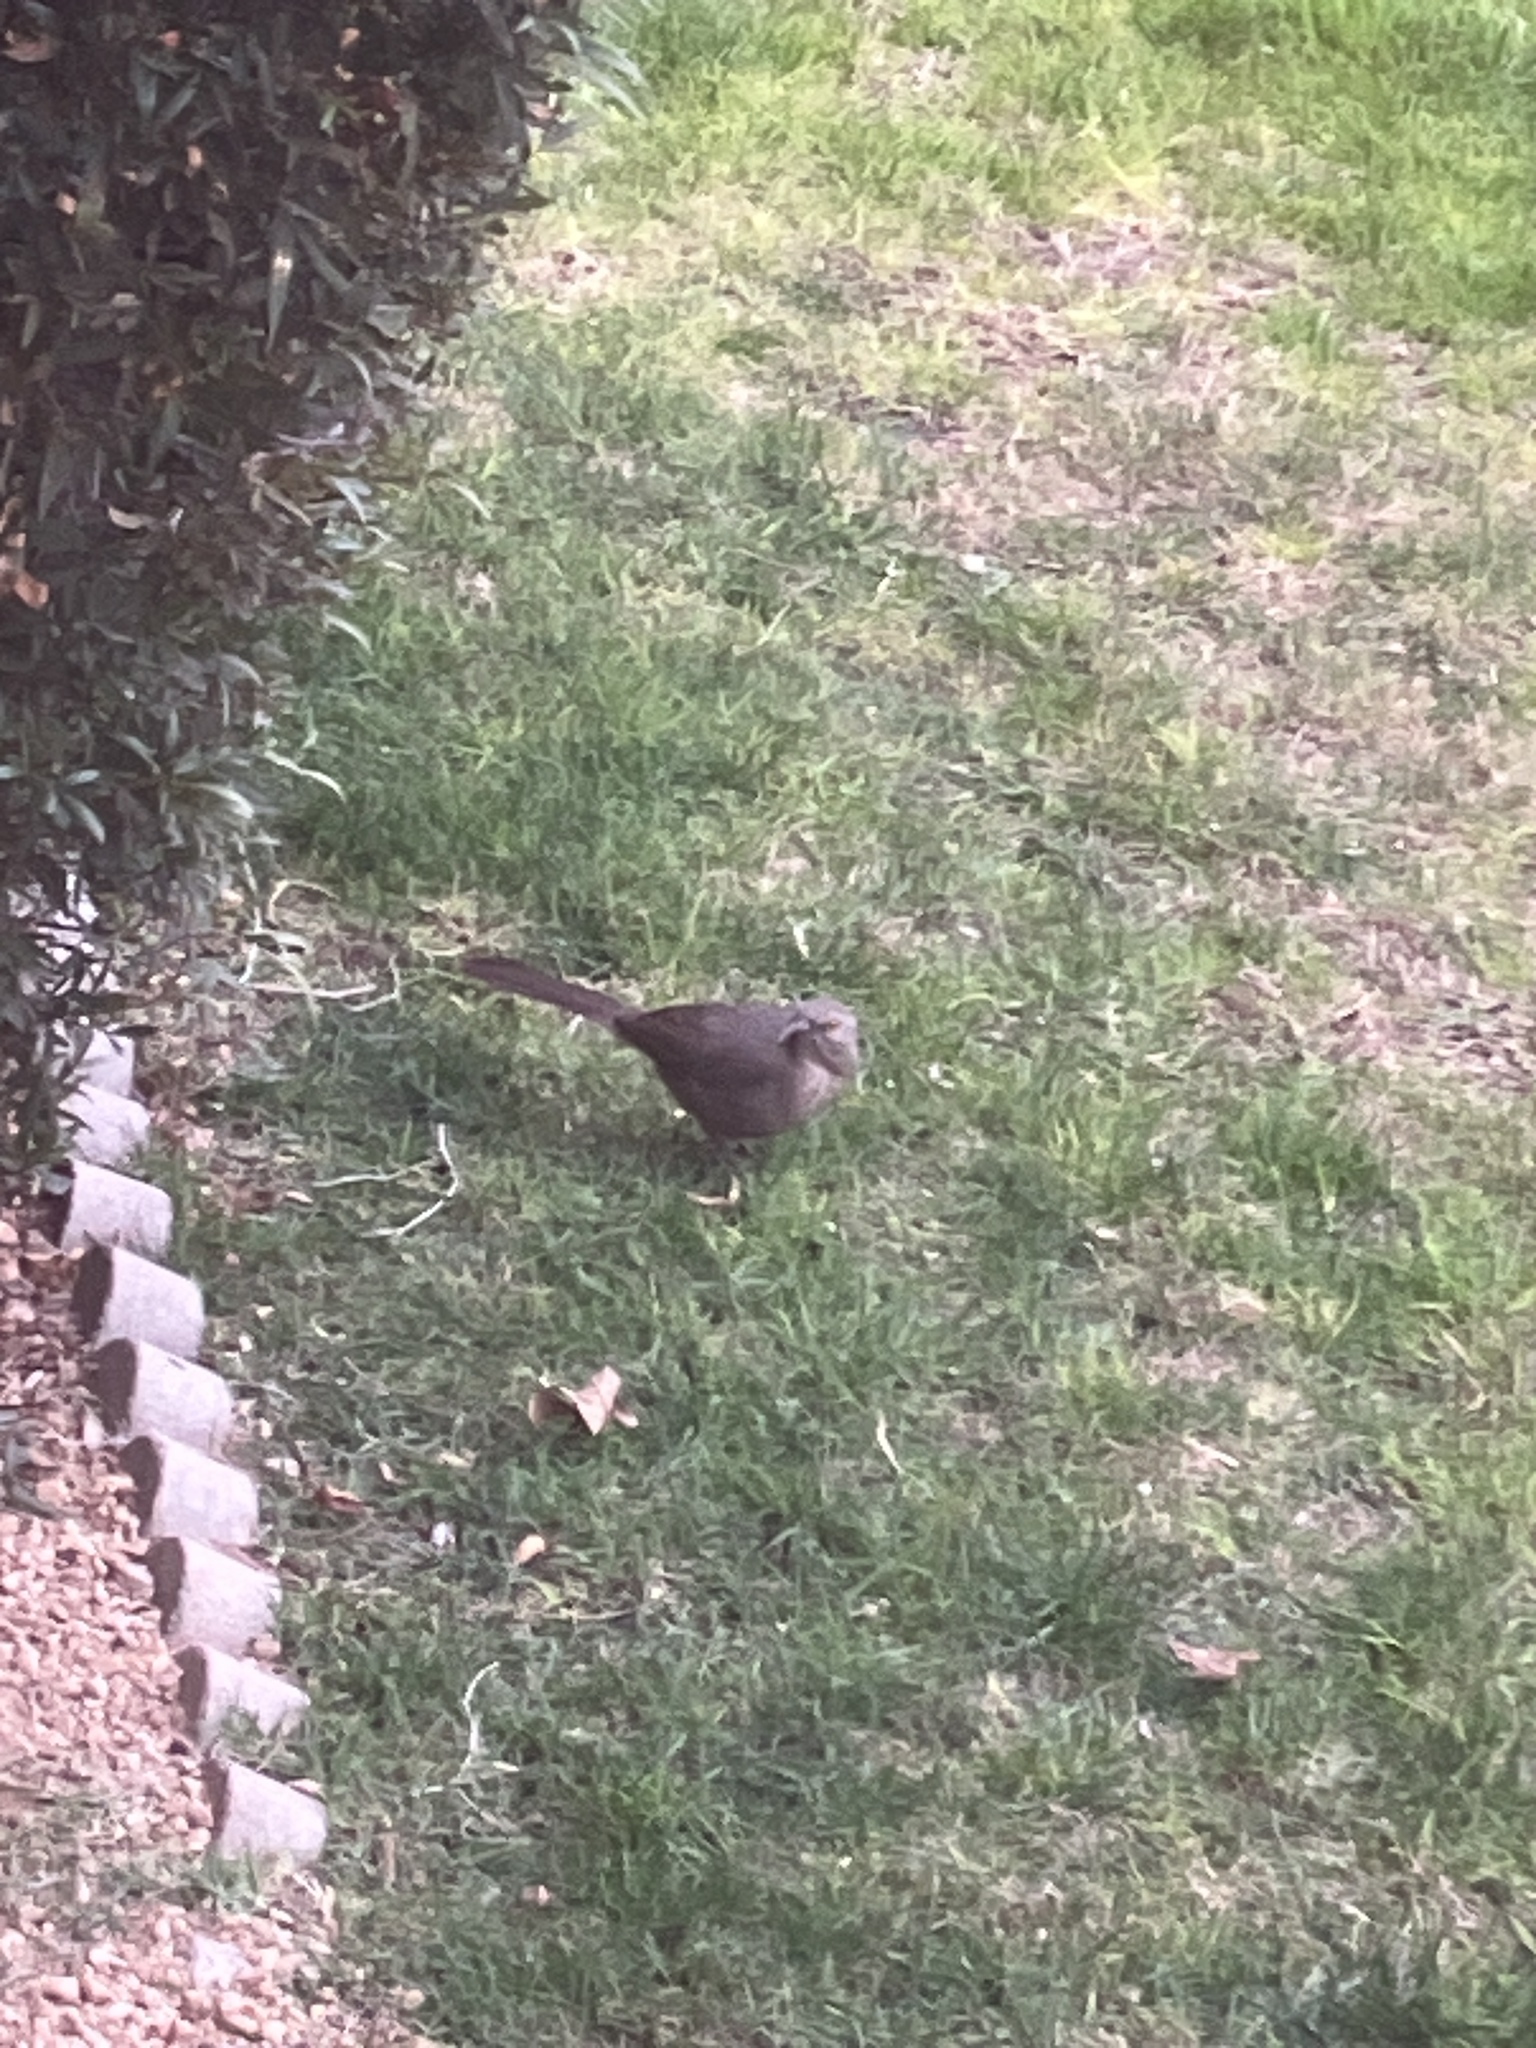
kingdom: Animalia
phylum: Chordata
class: Aves
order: Passeriformes
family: Mimidae
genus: Toxostoma
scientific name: Toxostoma curvirostre
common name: Curve-billed thrasher
